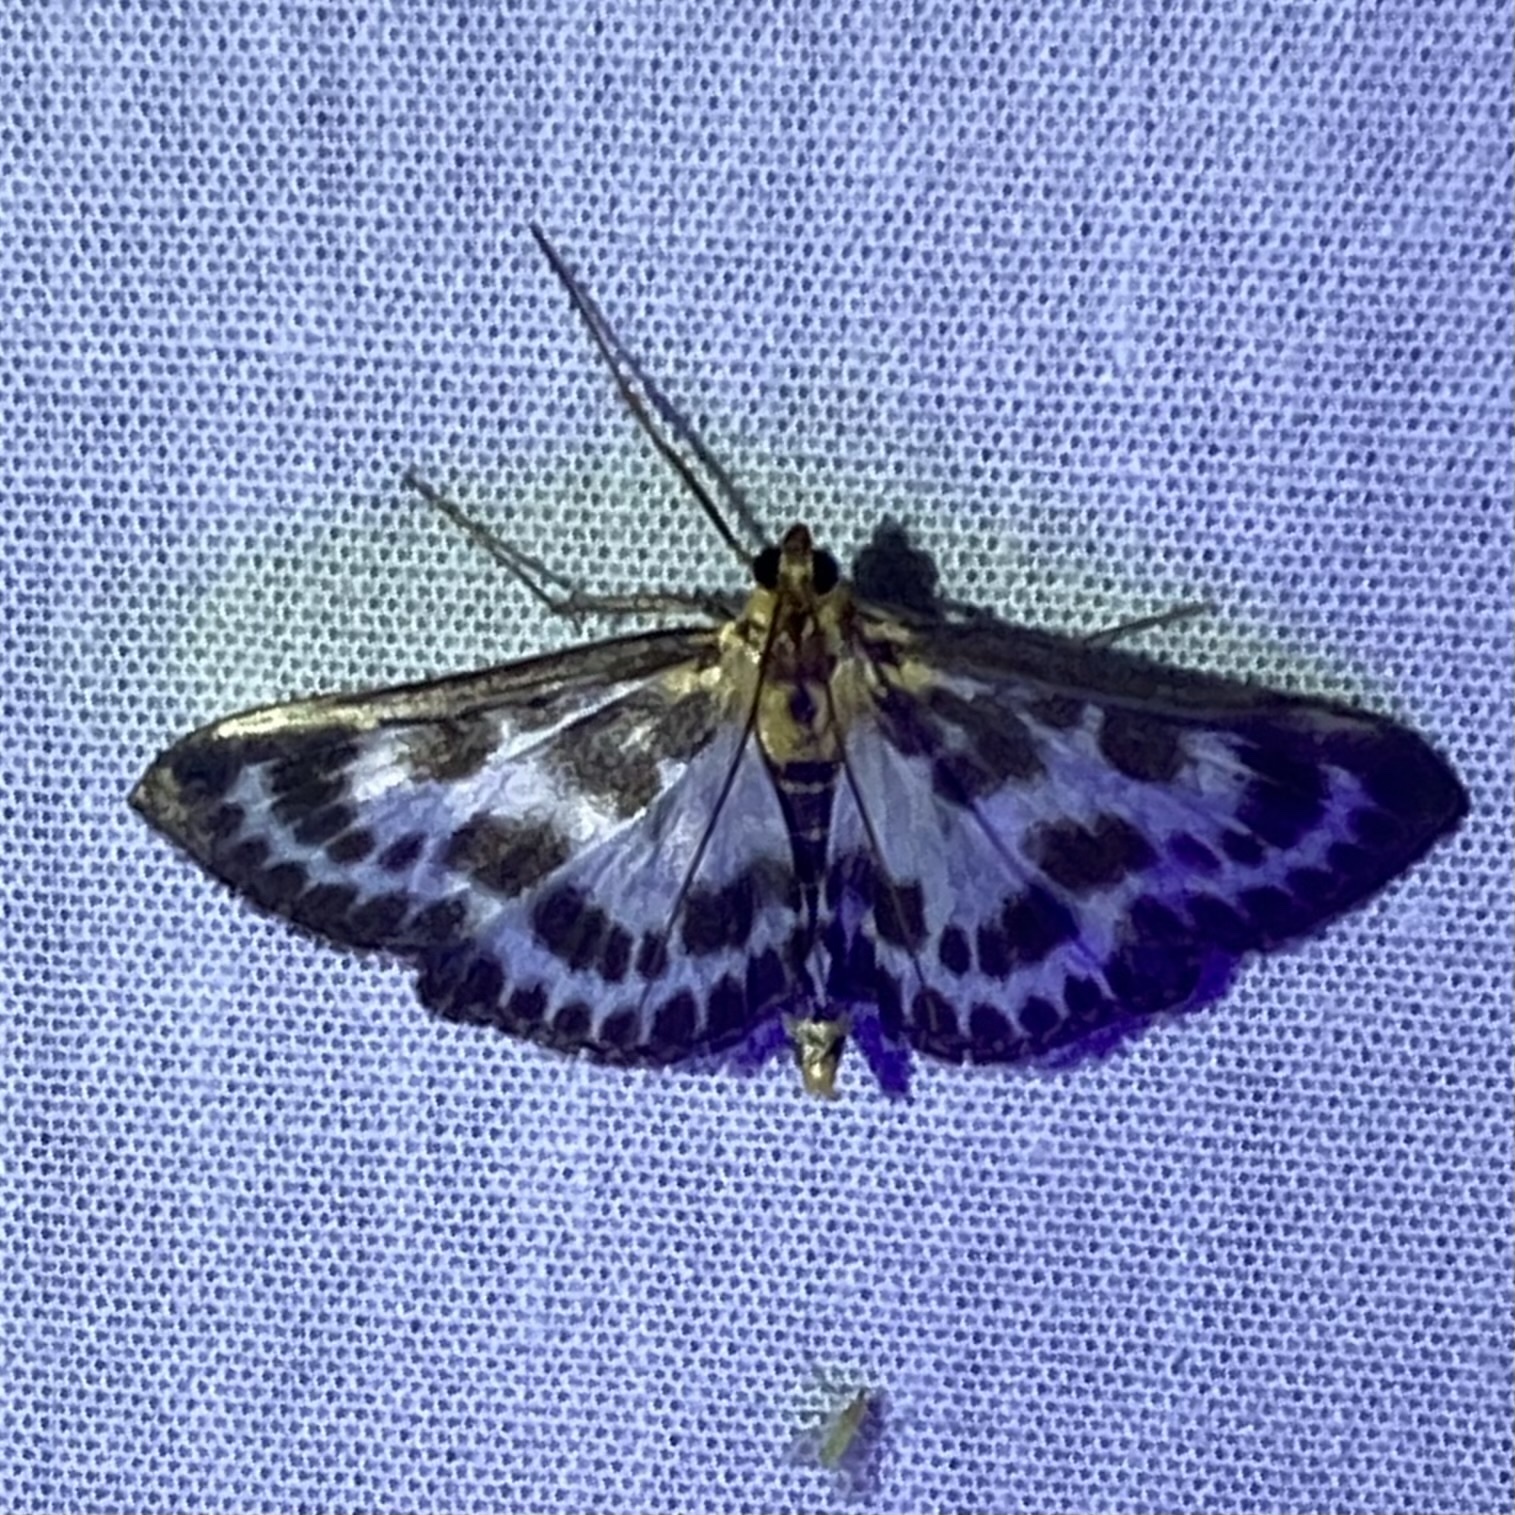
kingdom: Animalia
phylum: Arthropoda
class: Insecta
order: Lepidoptera
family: Crambidae
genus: Anania
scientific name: Anania hortulata
